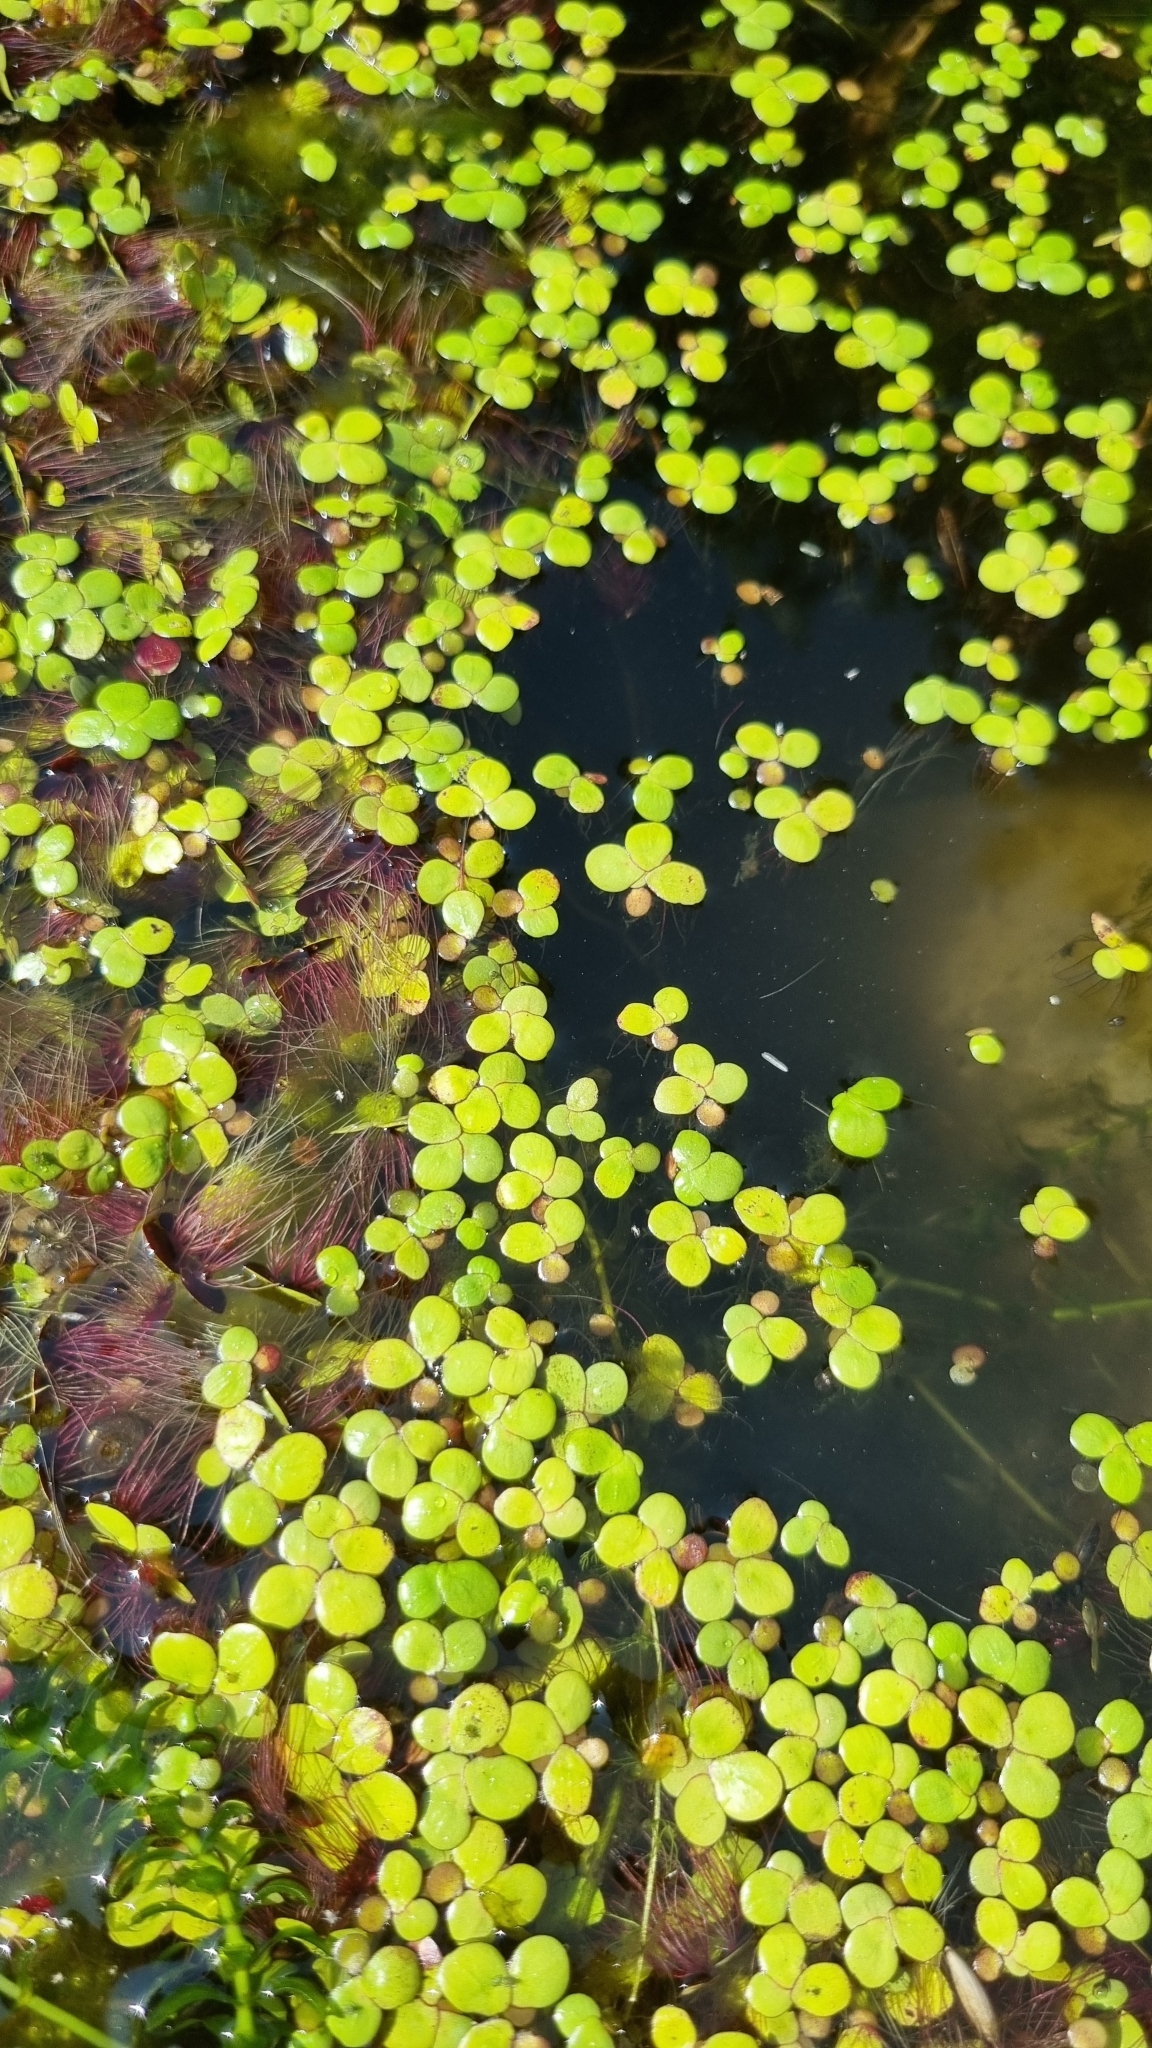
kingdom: Plantae
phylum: Tracheophyta
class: Liliopsida
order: Alismatales
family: Araceae
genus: Spirodela
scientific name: Spirodela polyrhiza
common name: Great duckweed
